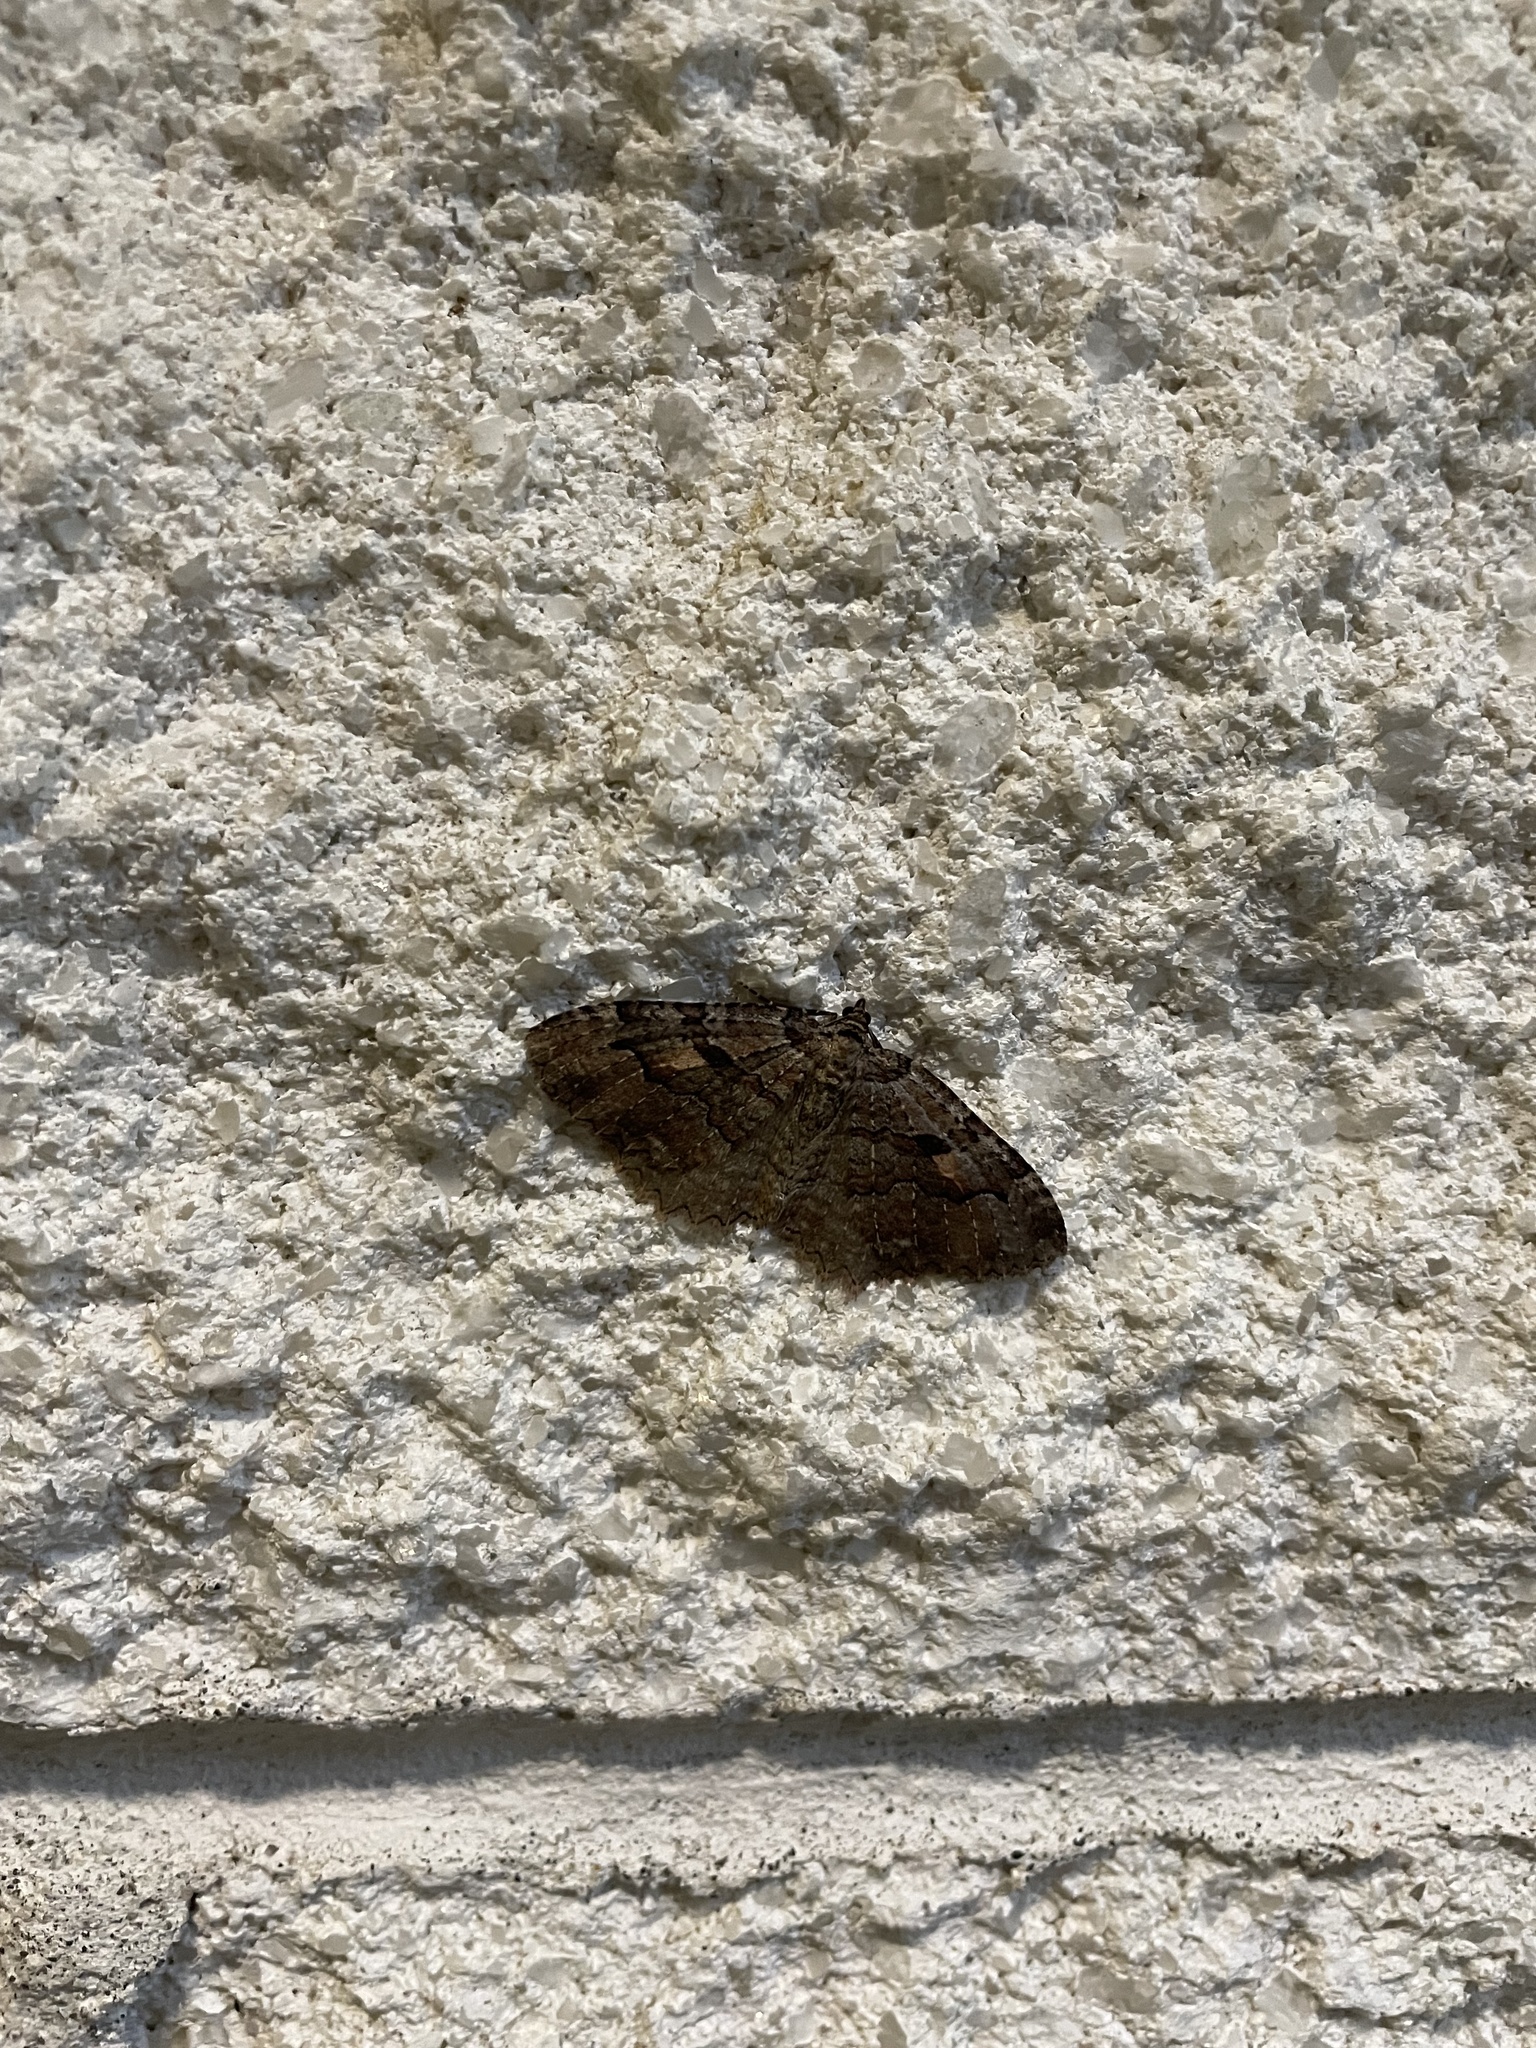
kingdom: Animalia
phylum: Arthropoda
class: Insecta
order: Lepidoptera
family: Geometridae
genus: Triphosa
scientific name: Triphosa haesitata
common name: Tissue moth
